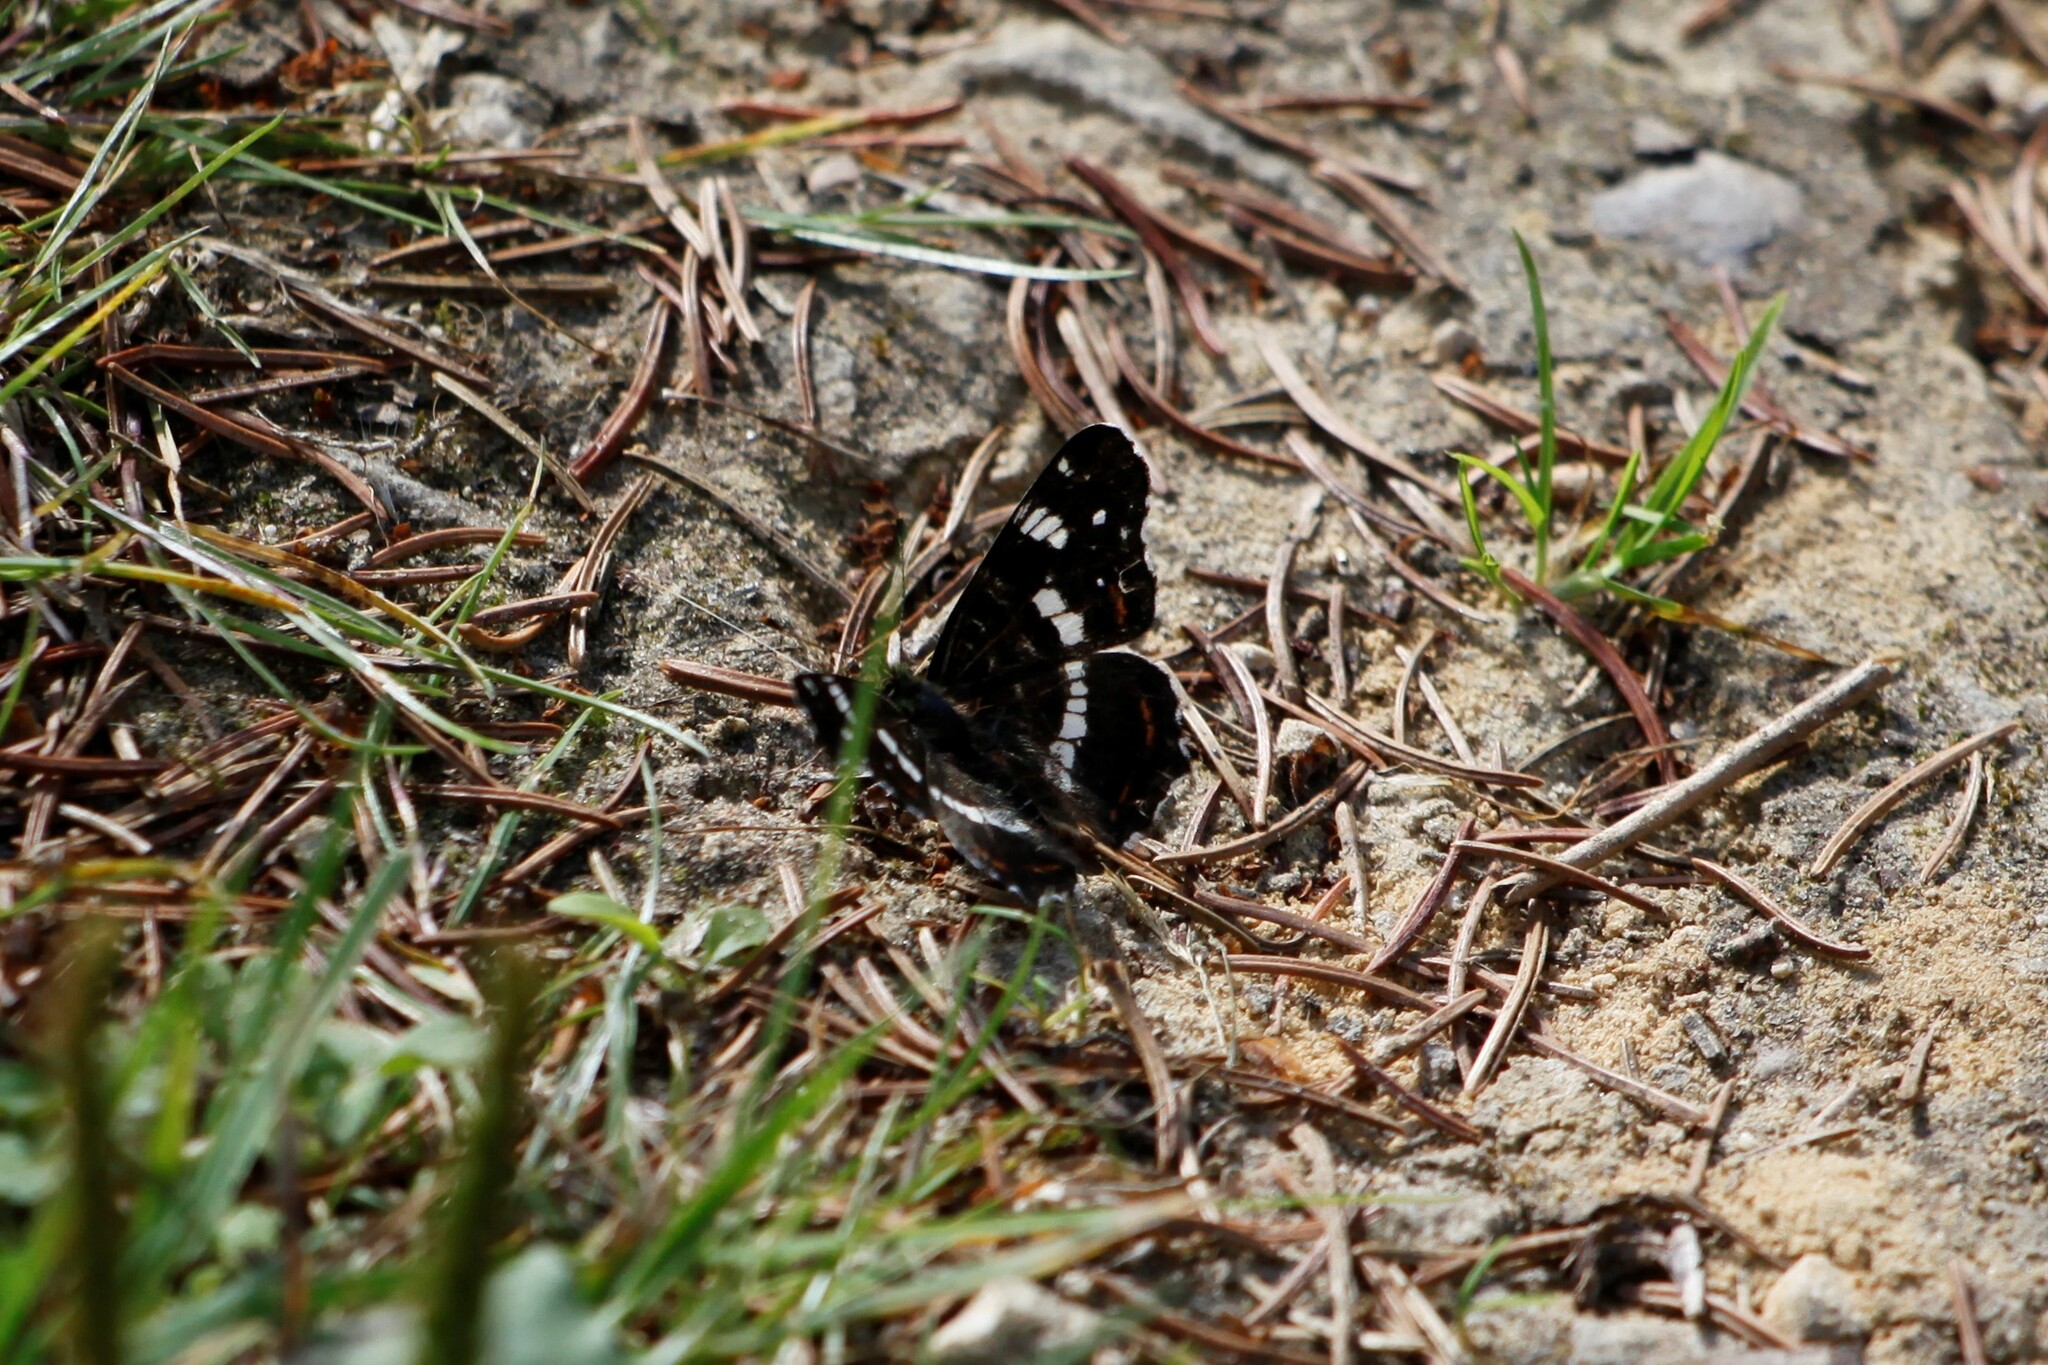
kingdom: Animalia
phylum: Arthropoda
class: Insecta
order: Lepidoptera
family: Nymphalidae
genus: Araschnia
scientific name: Araschnia levana
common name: Map butterfly
